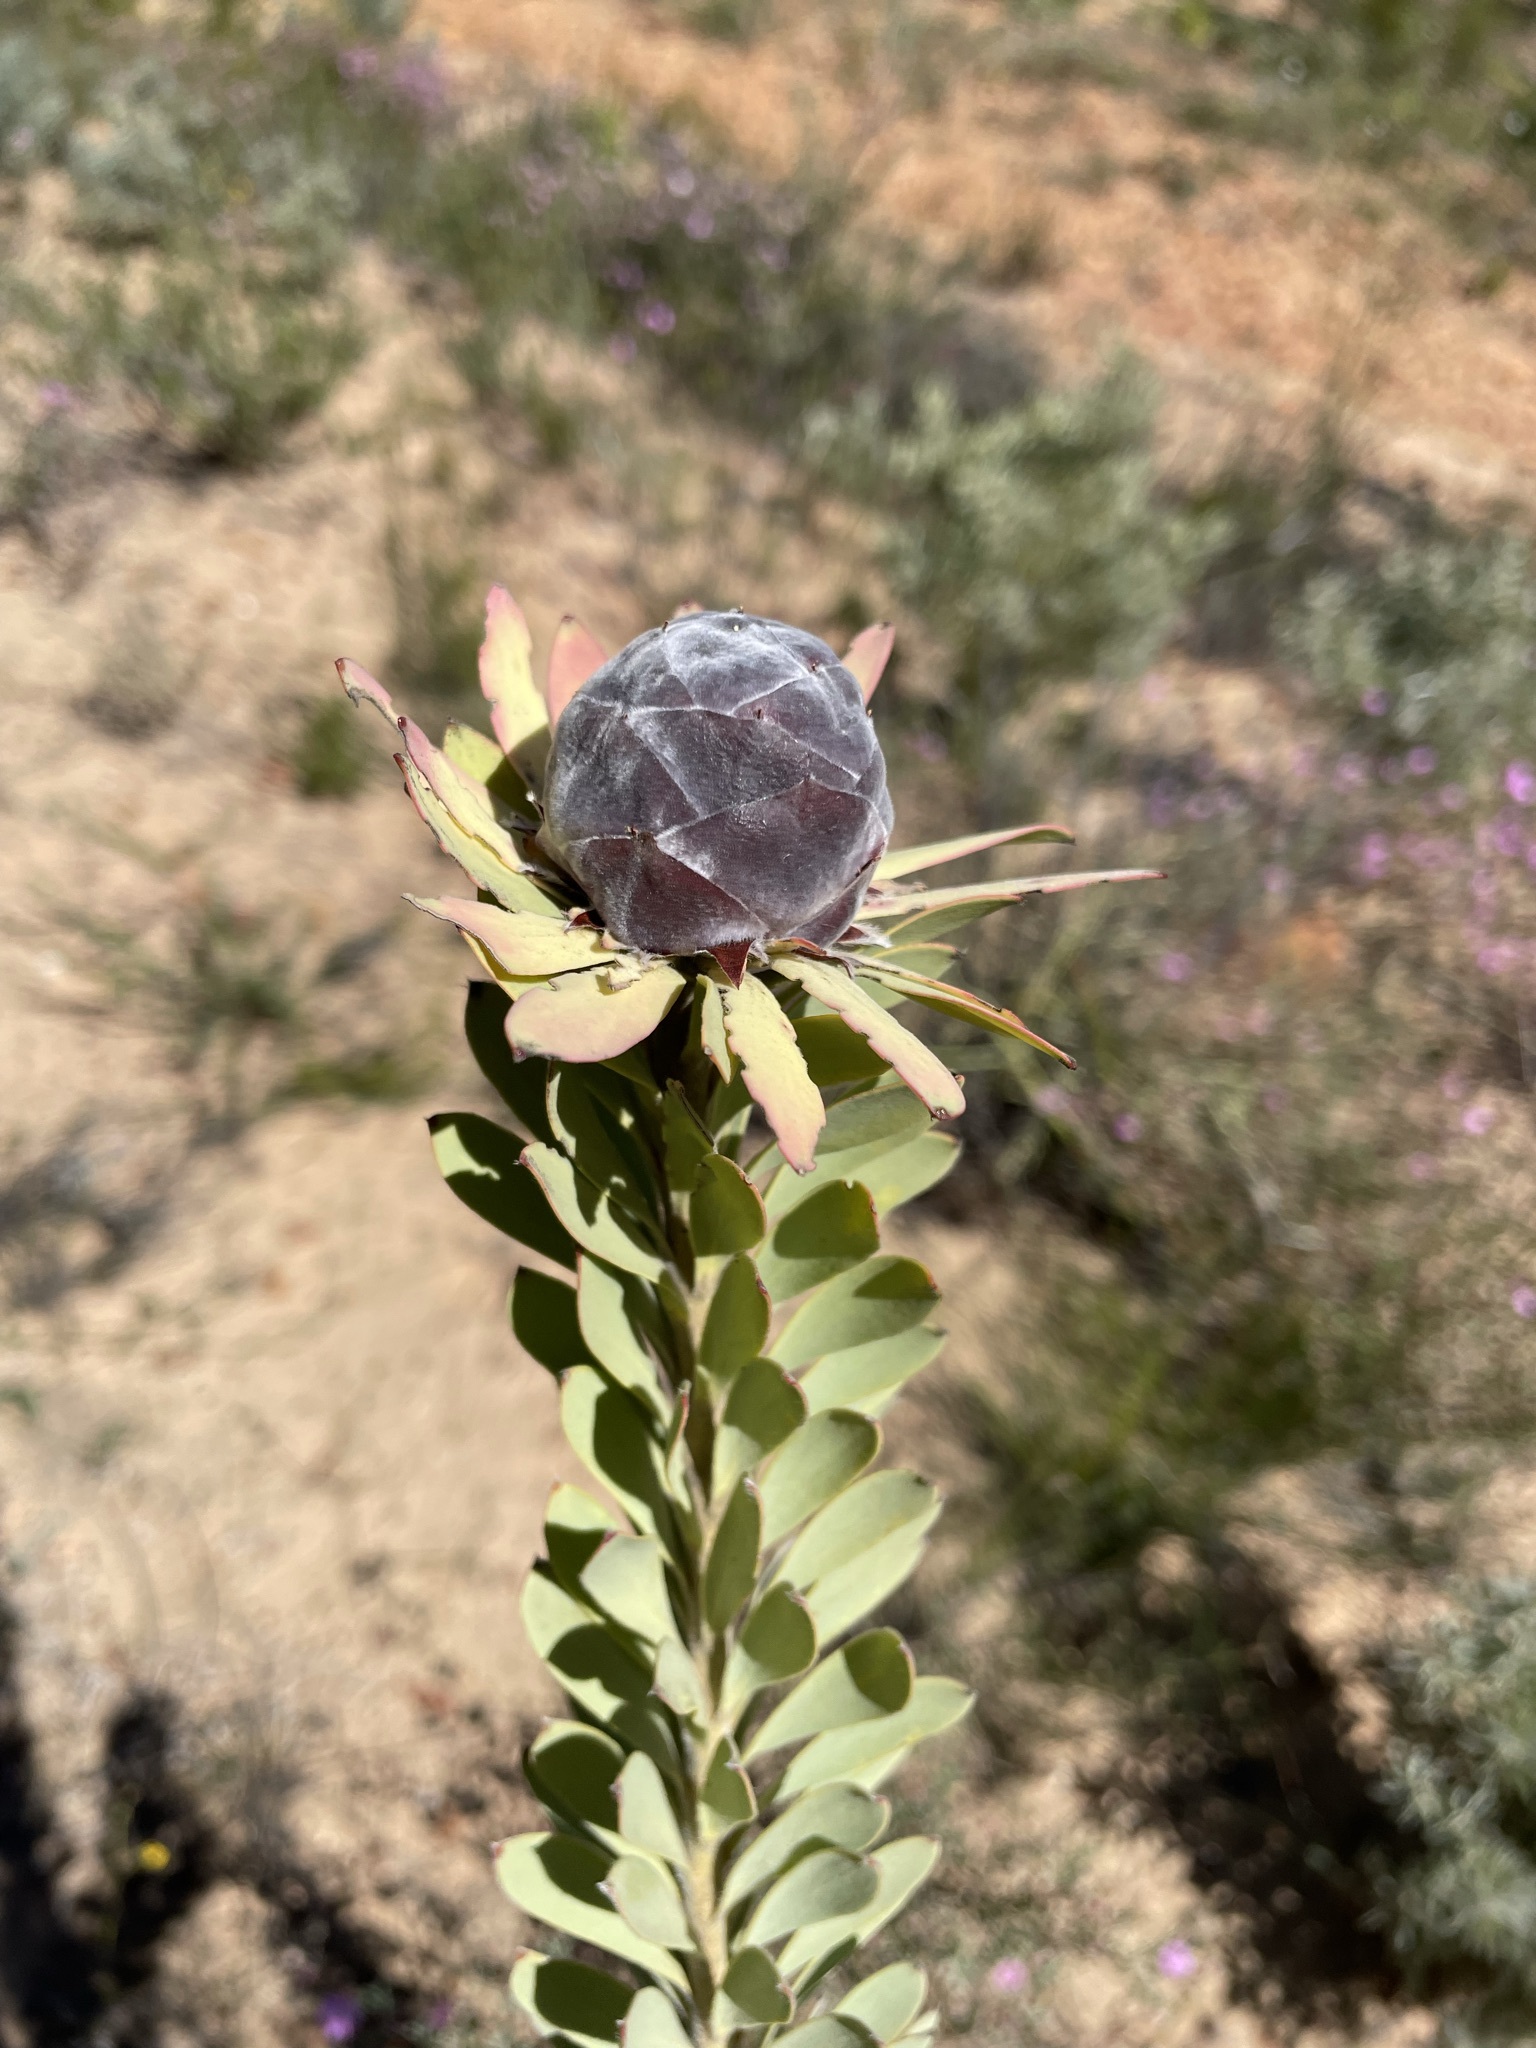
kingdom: Plantae
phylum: Tracheophyta
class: Magnoliopsida
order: Proteales
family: Proteaceae
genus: Leucadendron
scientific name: Leucadendron pubescens
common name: Grey conebush
